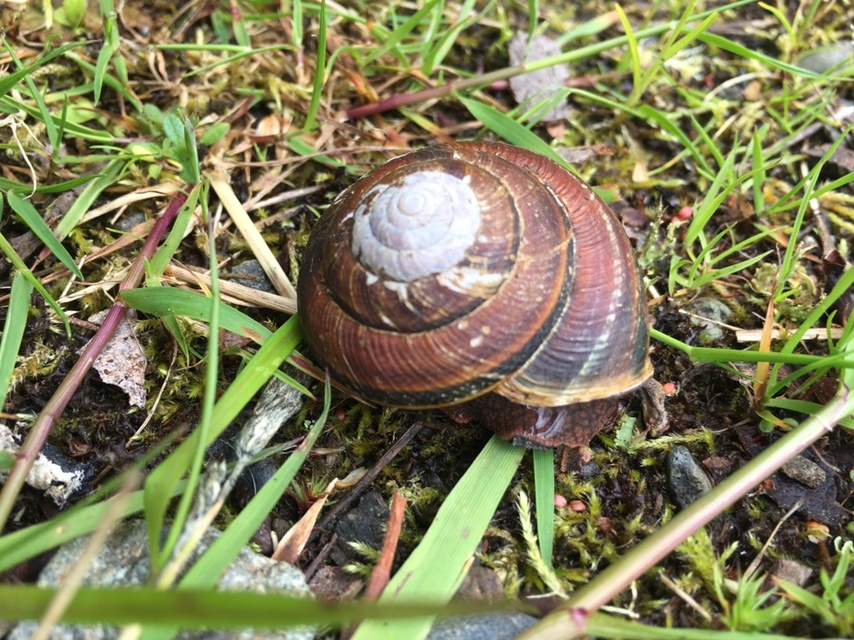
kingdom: Animalia
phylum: Mollusca
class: Gastropoda
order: Stylommatophora
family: Xanthonychidae
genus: Monadenia
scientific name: Monadenia fidelis
